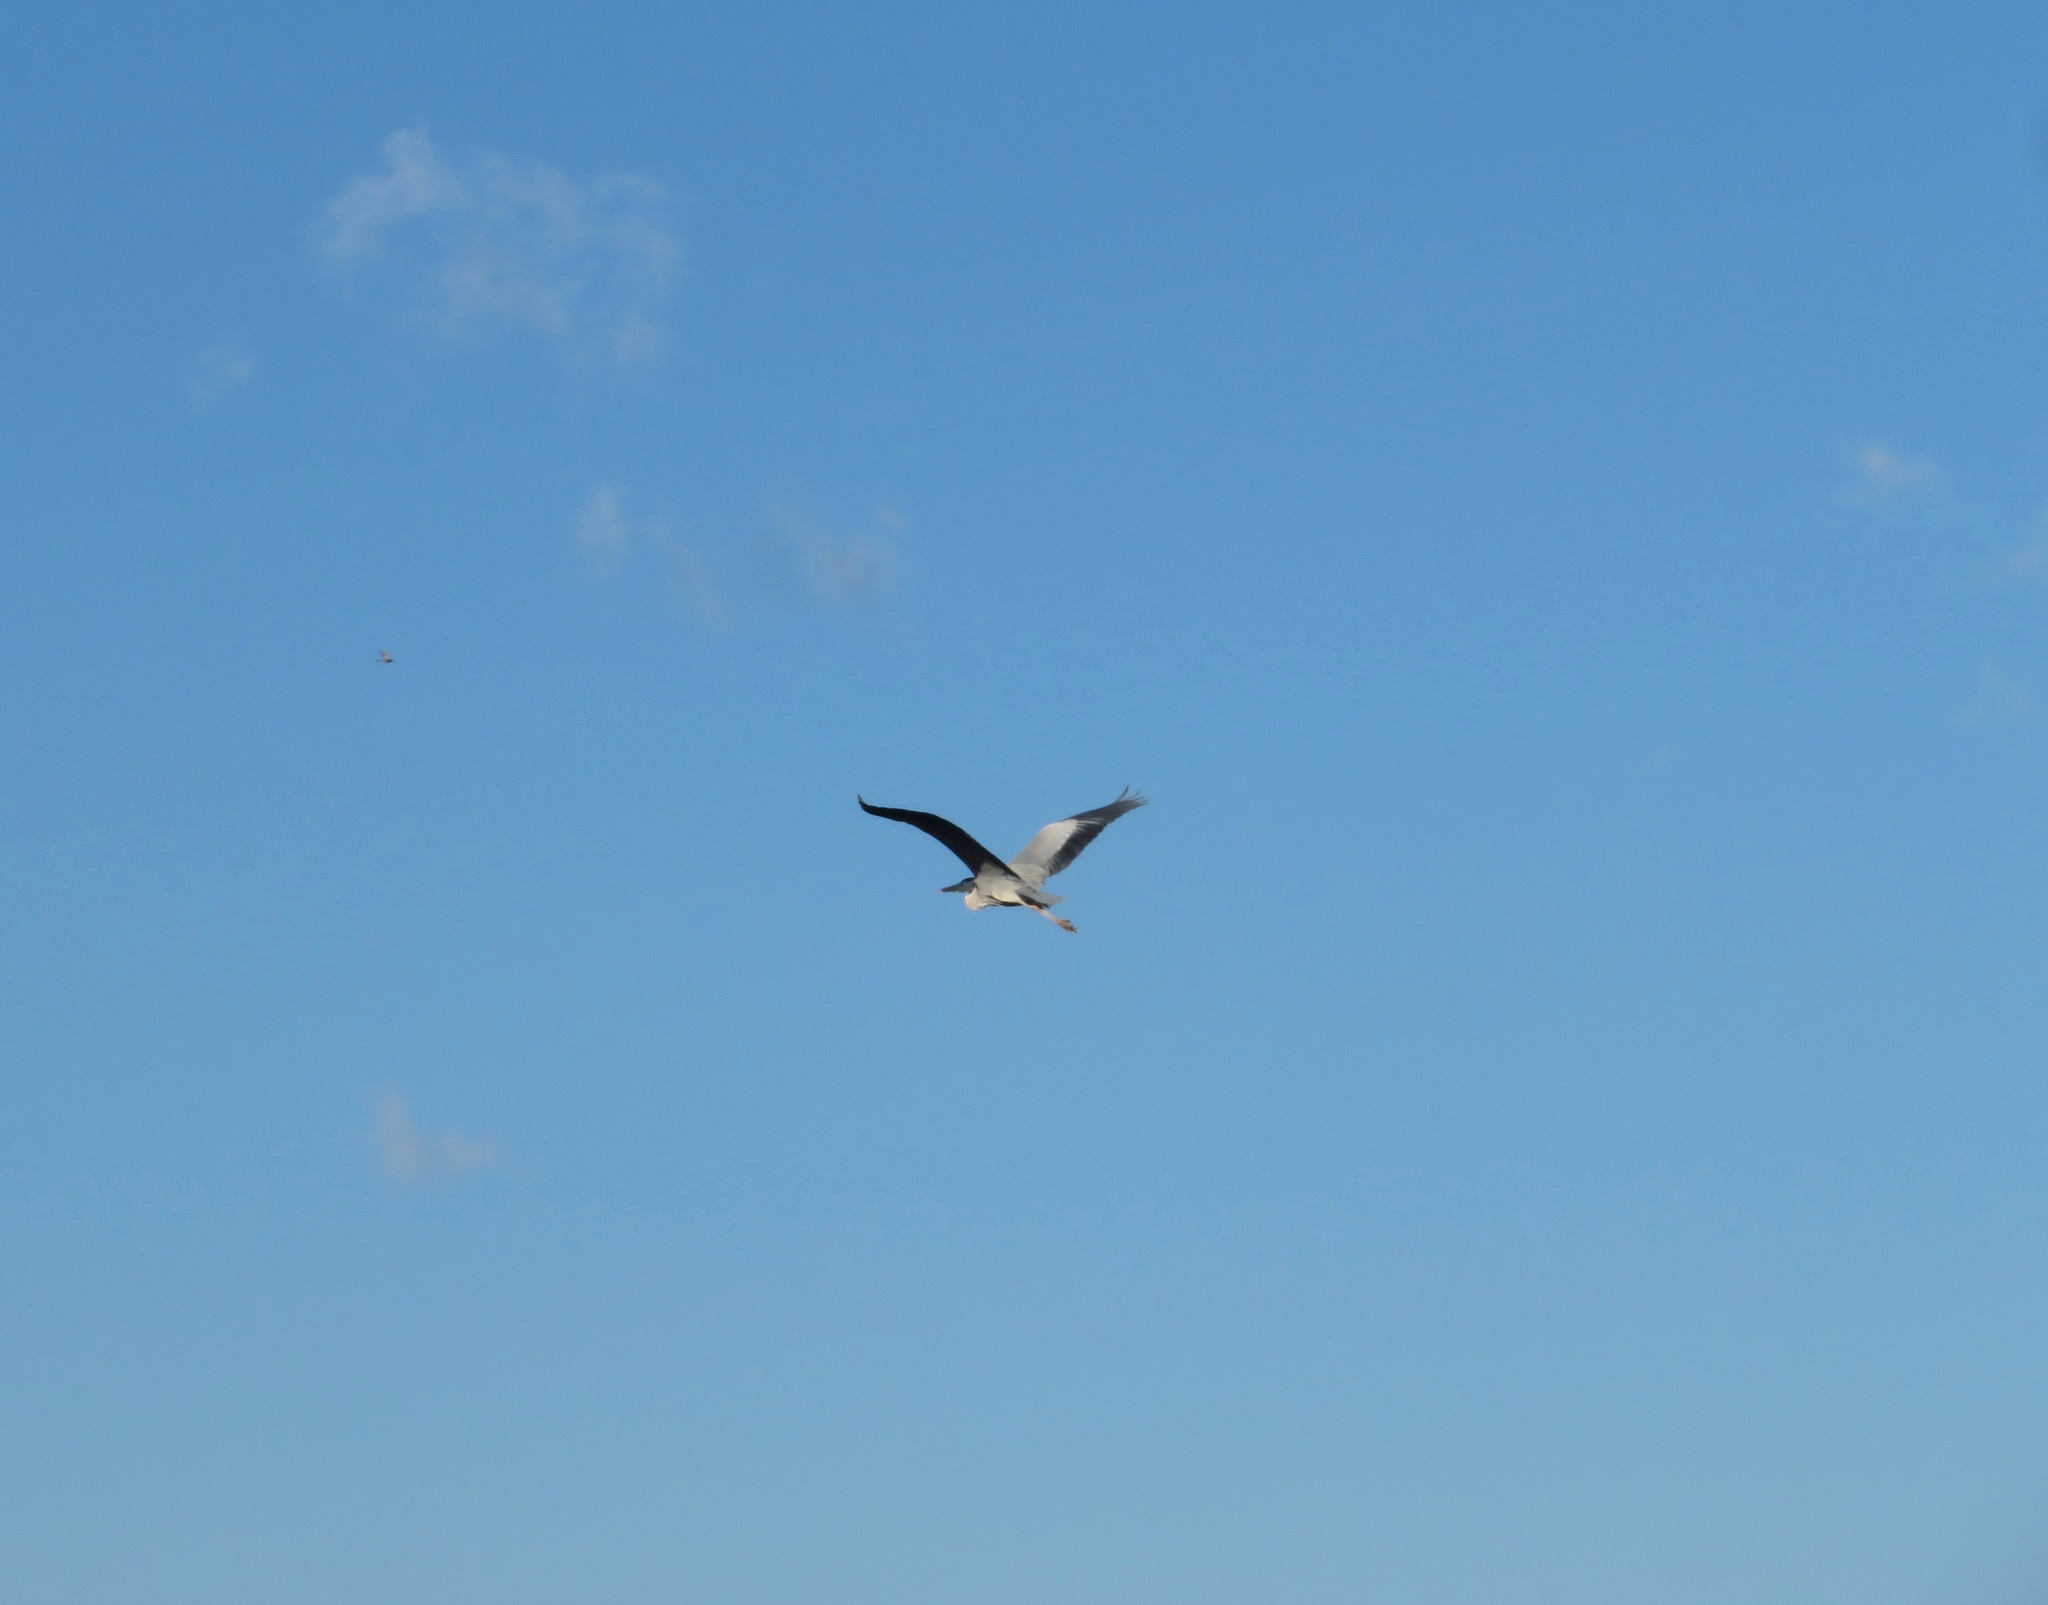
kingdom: Animalia
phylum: Chordata
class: Aves
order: Pelecaniformes
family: Ardeidae
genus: Ardea
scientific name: Ardea cinerea
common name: Grey heron
